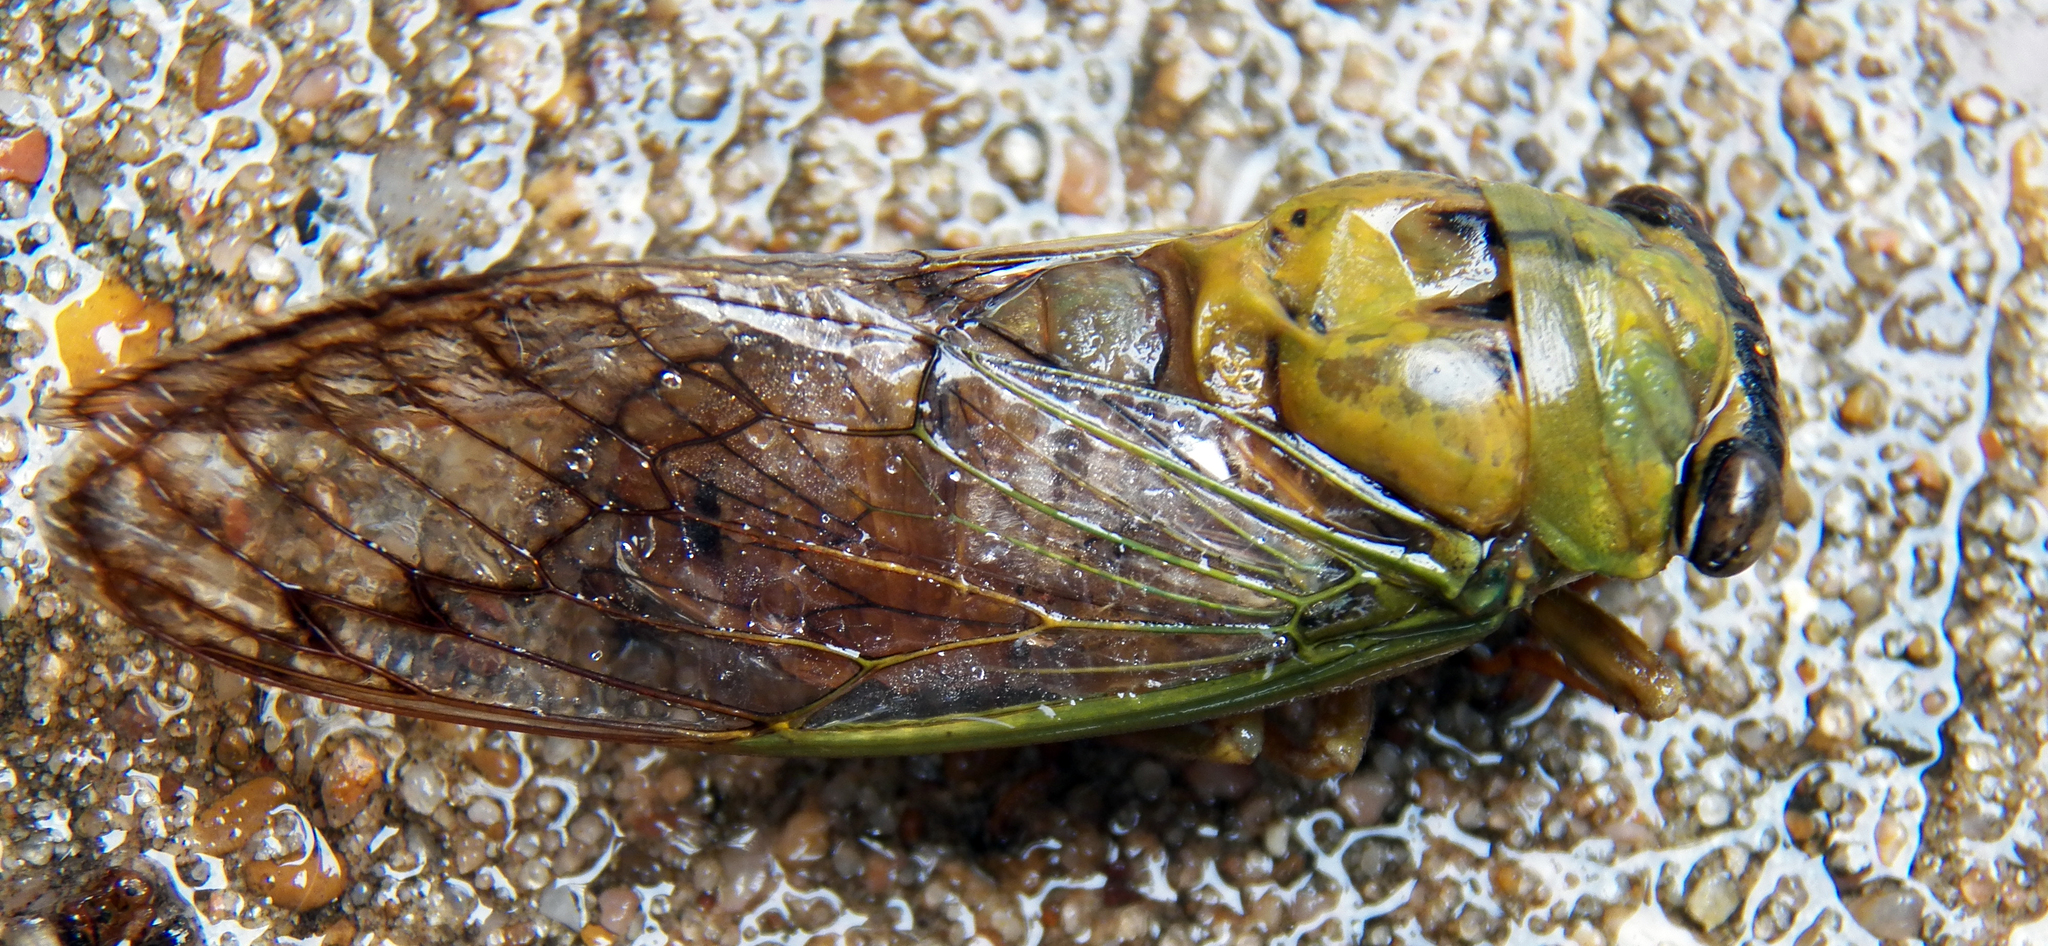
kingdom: Animalia
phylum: Arthropoda
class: Insecta
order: Hemiptera
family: Cicadidae
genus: Neotibicen
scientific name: Neotibicen superbus
